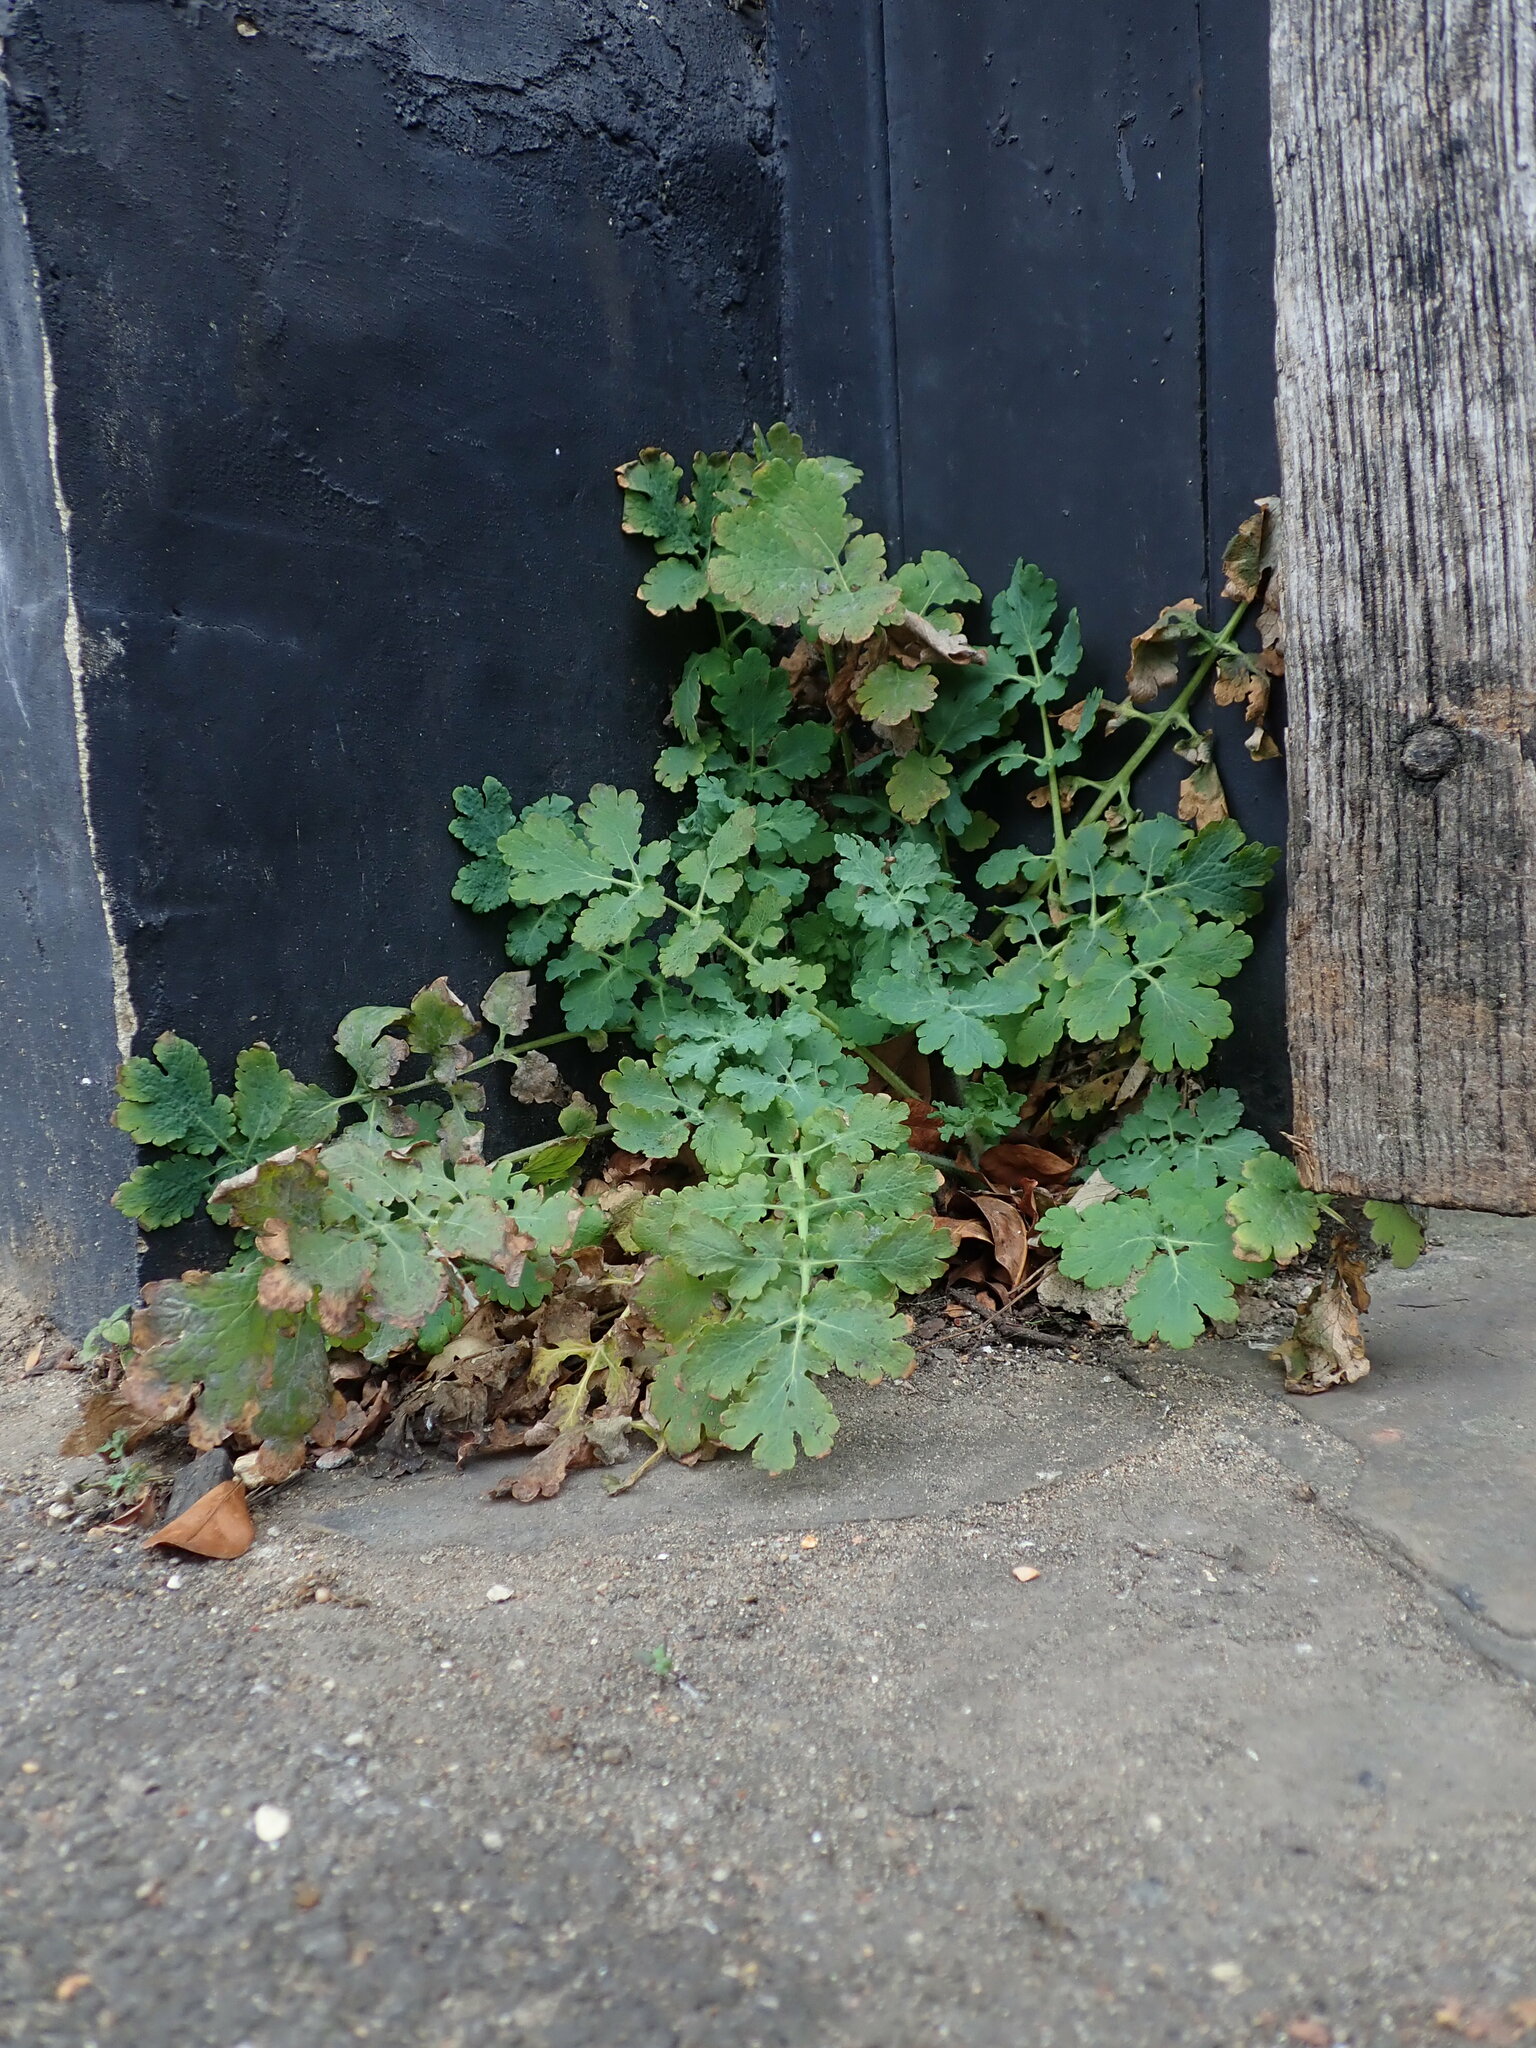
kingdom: Plantae
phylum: Tracheophyta
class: Magnoliopsida
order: Ranunculales
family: Papaveraceae
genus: Chelidonium
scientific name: Chelidonium majus
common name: Greater celandine
